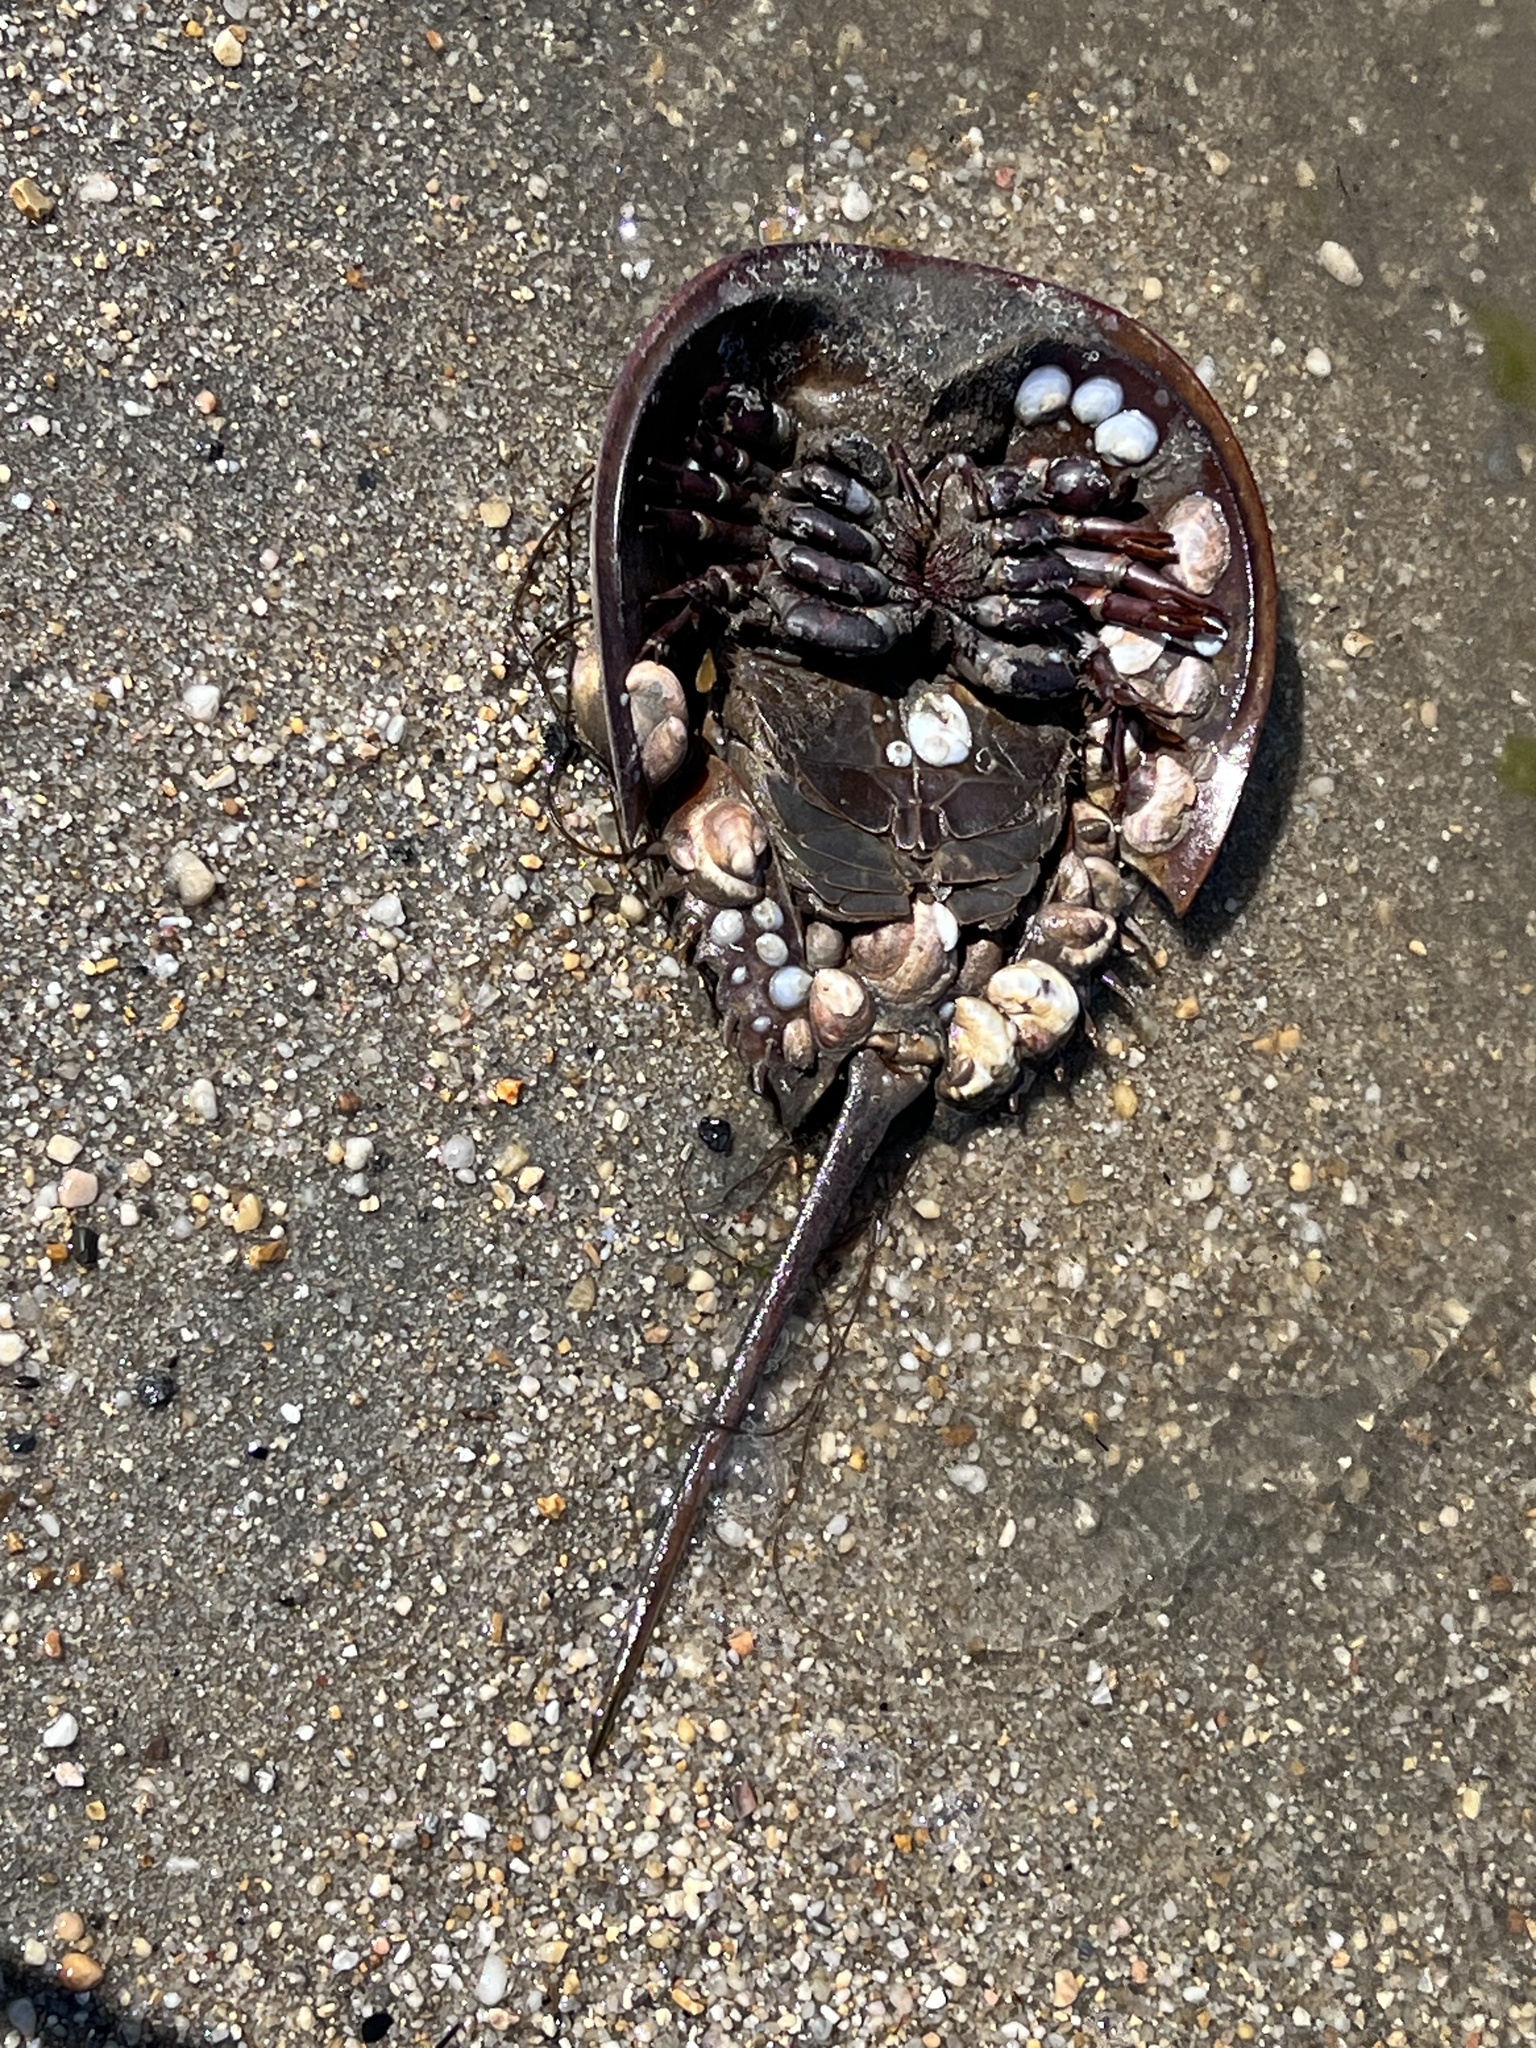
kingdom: Animalia
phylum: Arthropoda
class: Merostomata
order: Xiphosurida
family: Limulidae
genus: Limulus
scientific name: Limulus polyphemus
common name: Horseshoe crab
